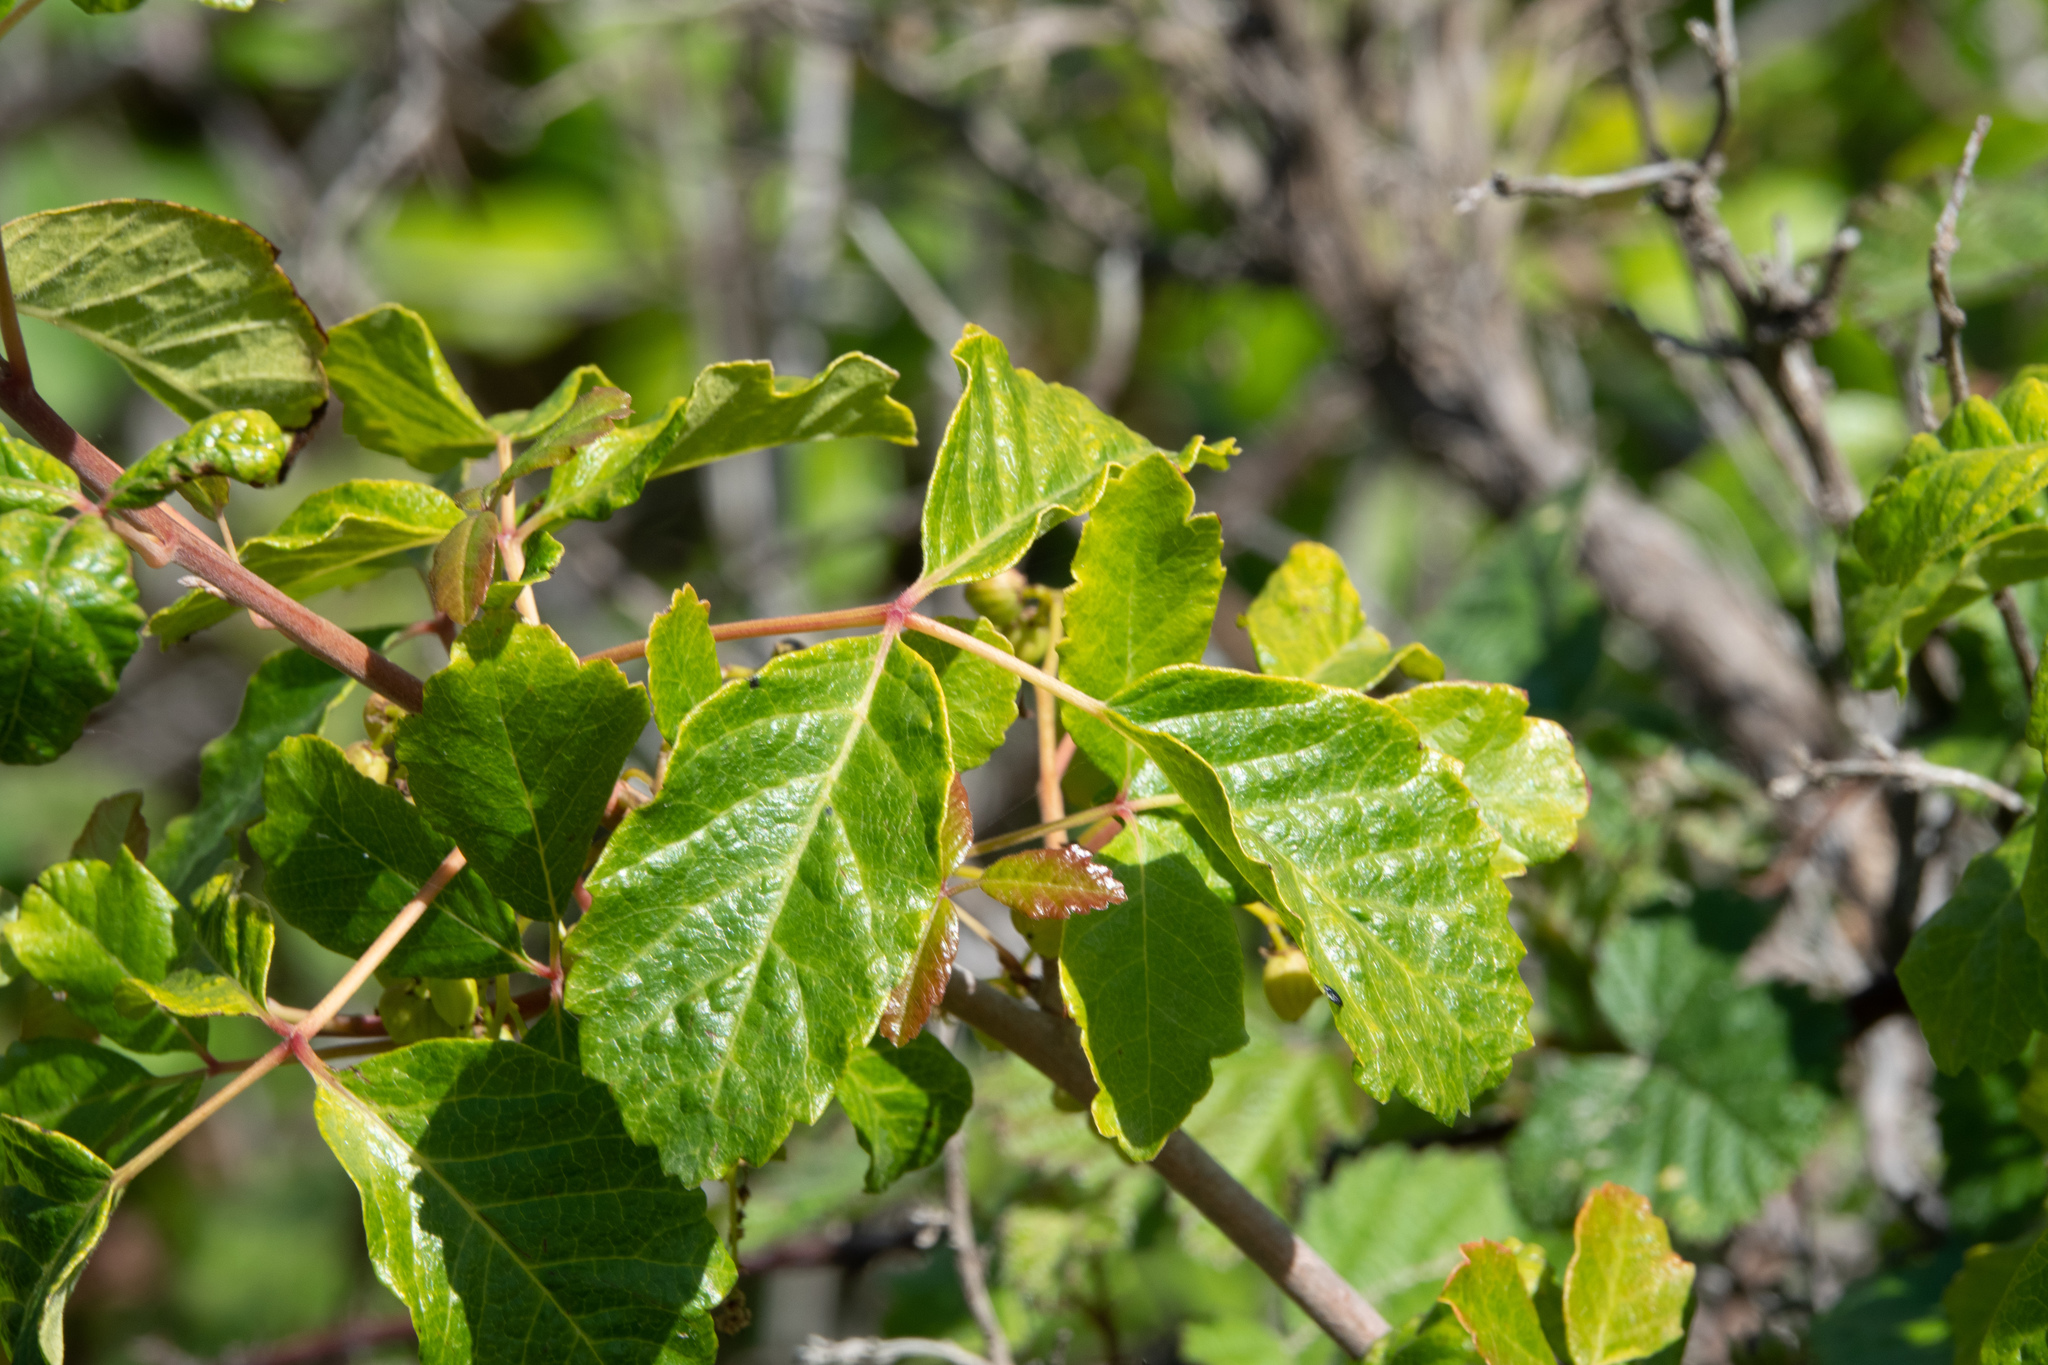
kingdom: Plantae
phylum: Tracheophyta
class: Magnoliopsida
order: Sapindales
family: Anacardiaceae
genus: Toxicodendron
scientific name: Toxicodendron diversilobum
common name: Pacific poison-oak
